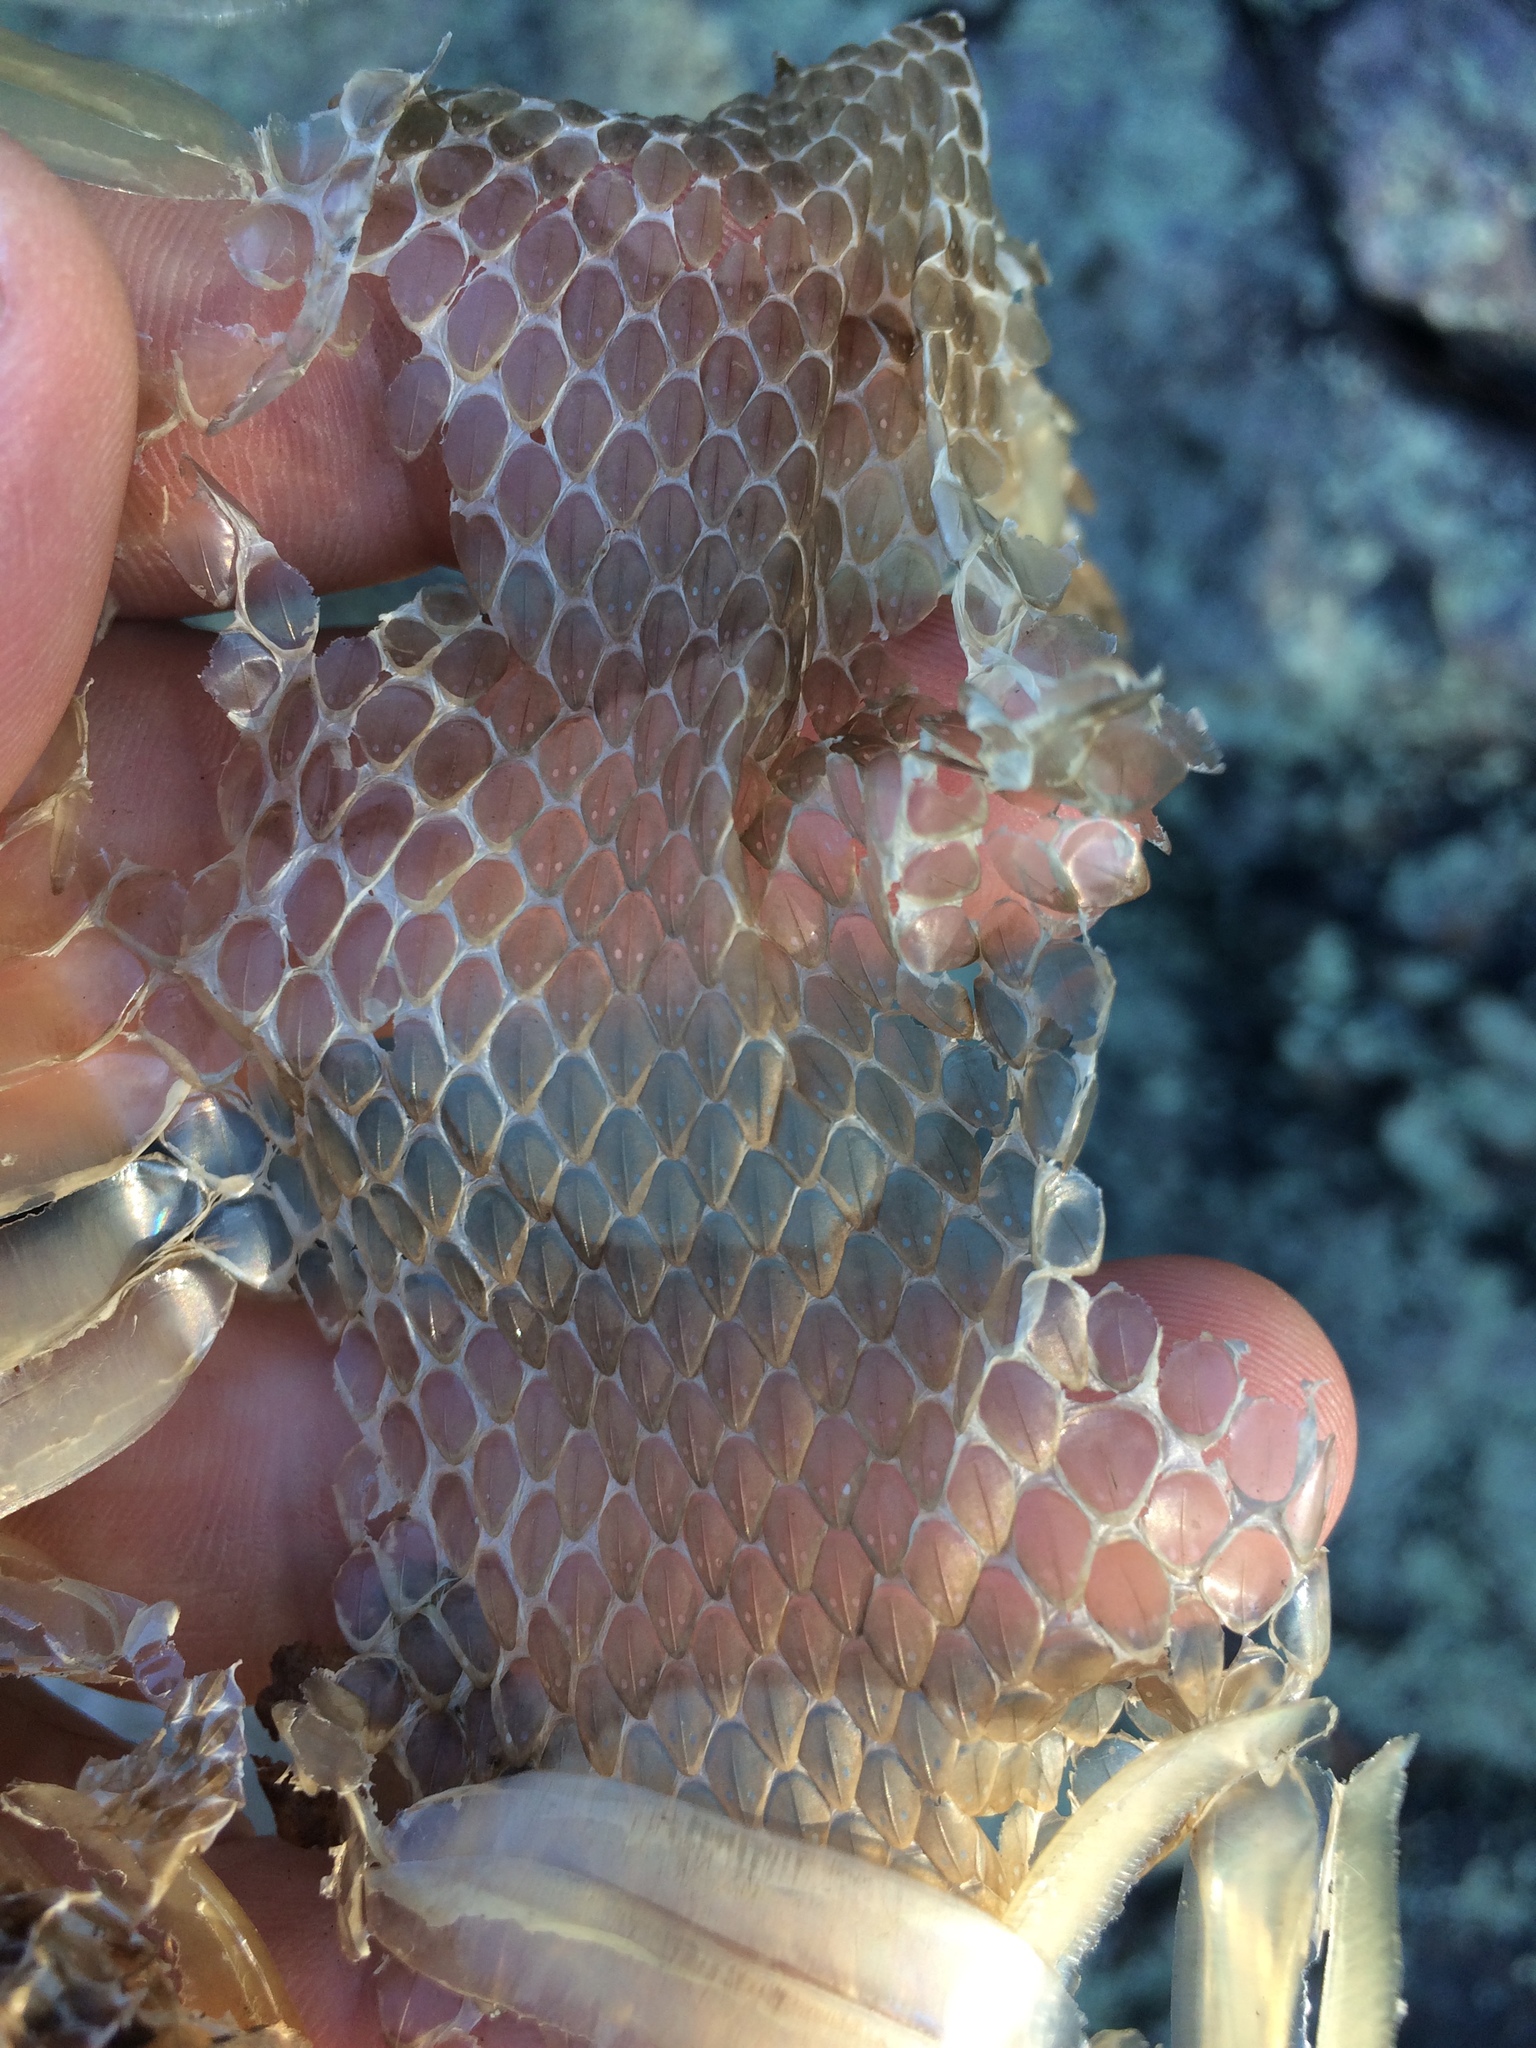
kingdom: Animalia
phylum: Chordata
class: Squamata
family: Viperidae
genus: Agkistrodon
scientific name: Agkistrodon contortrix
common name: Northern copperhead
